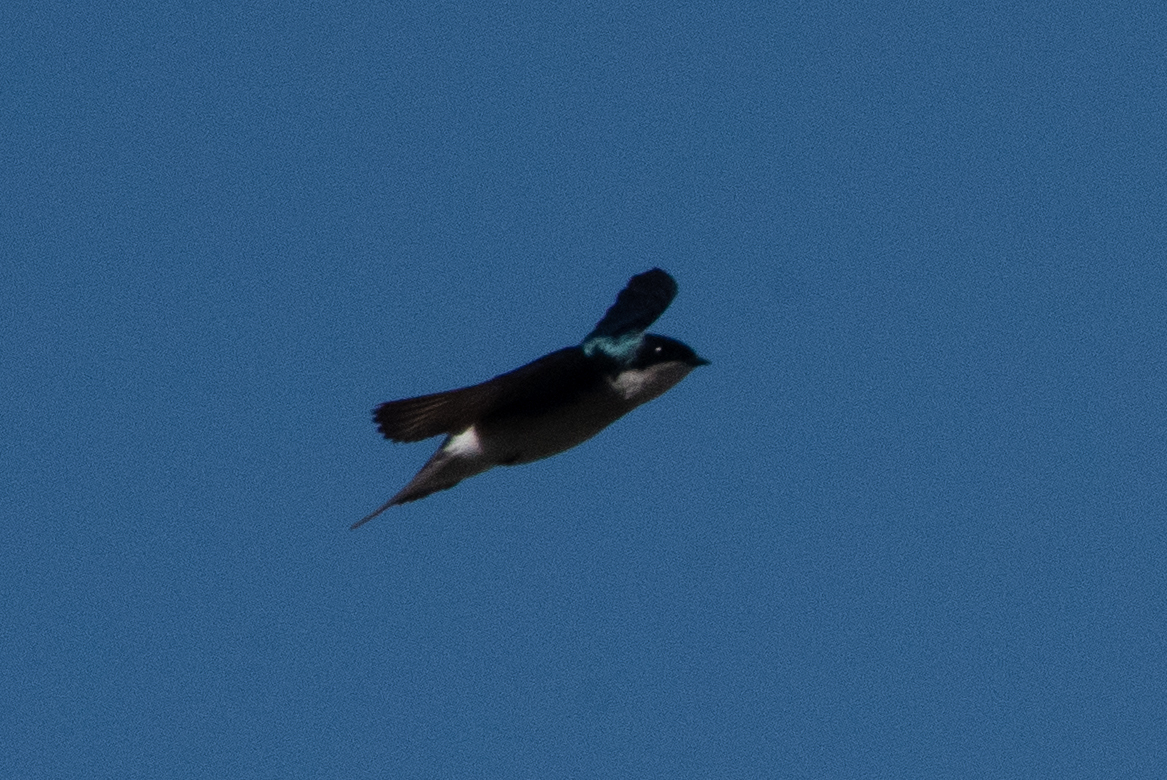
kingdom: Animalia
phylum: Chordata
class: Aves
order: Passeriformes
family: Hirundinidae
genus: Tachycineta
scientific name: Tachycineta bicolor
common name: Tree swallow
